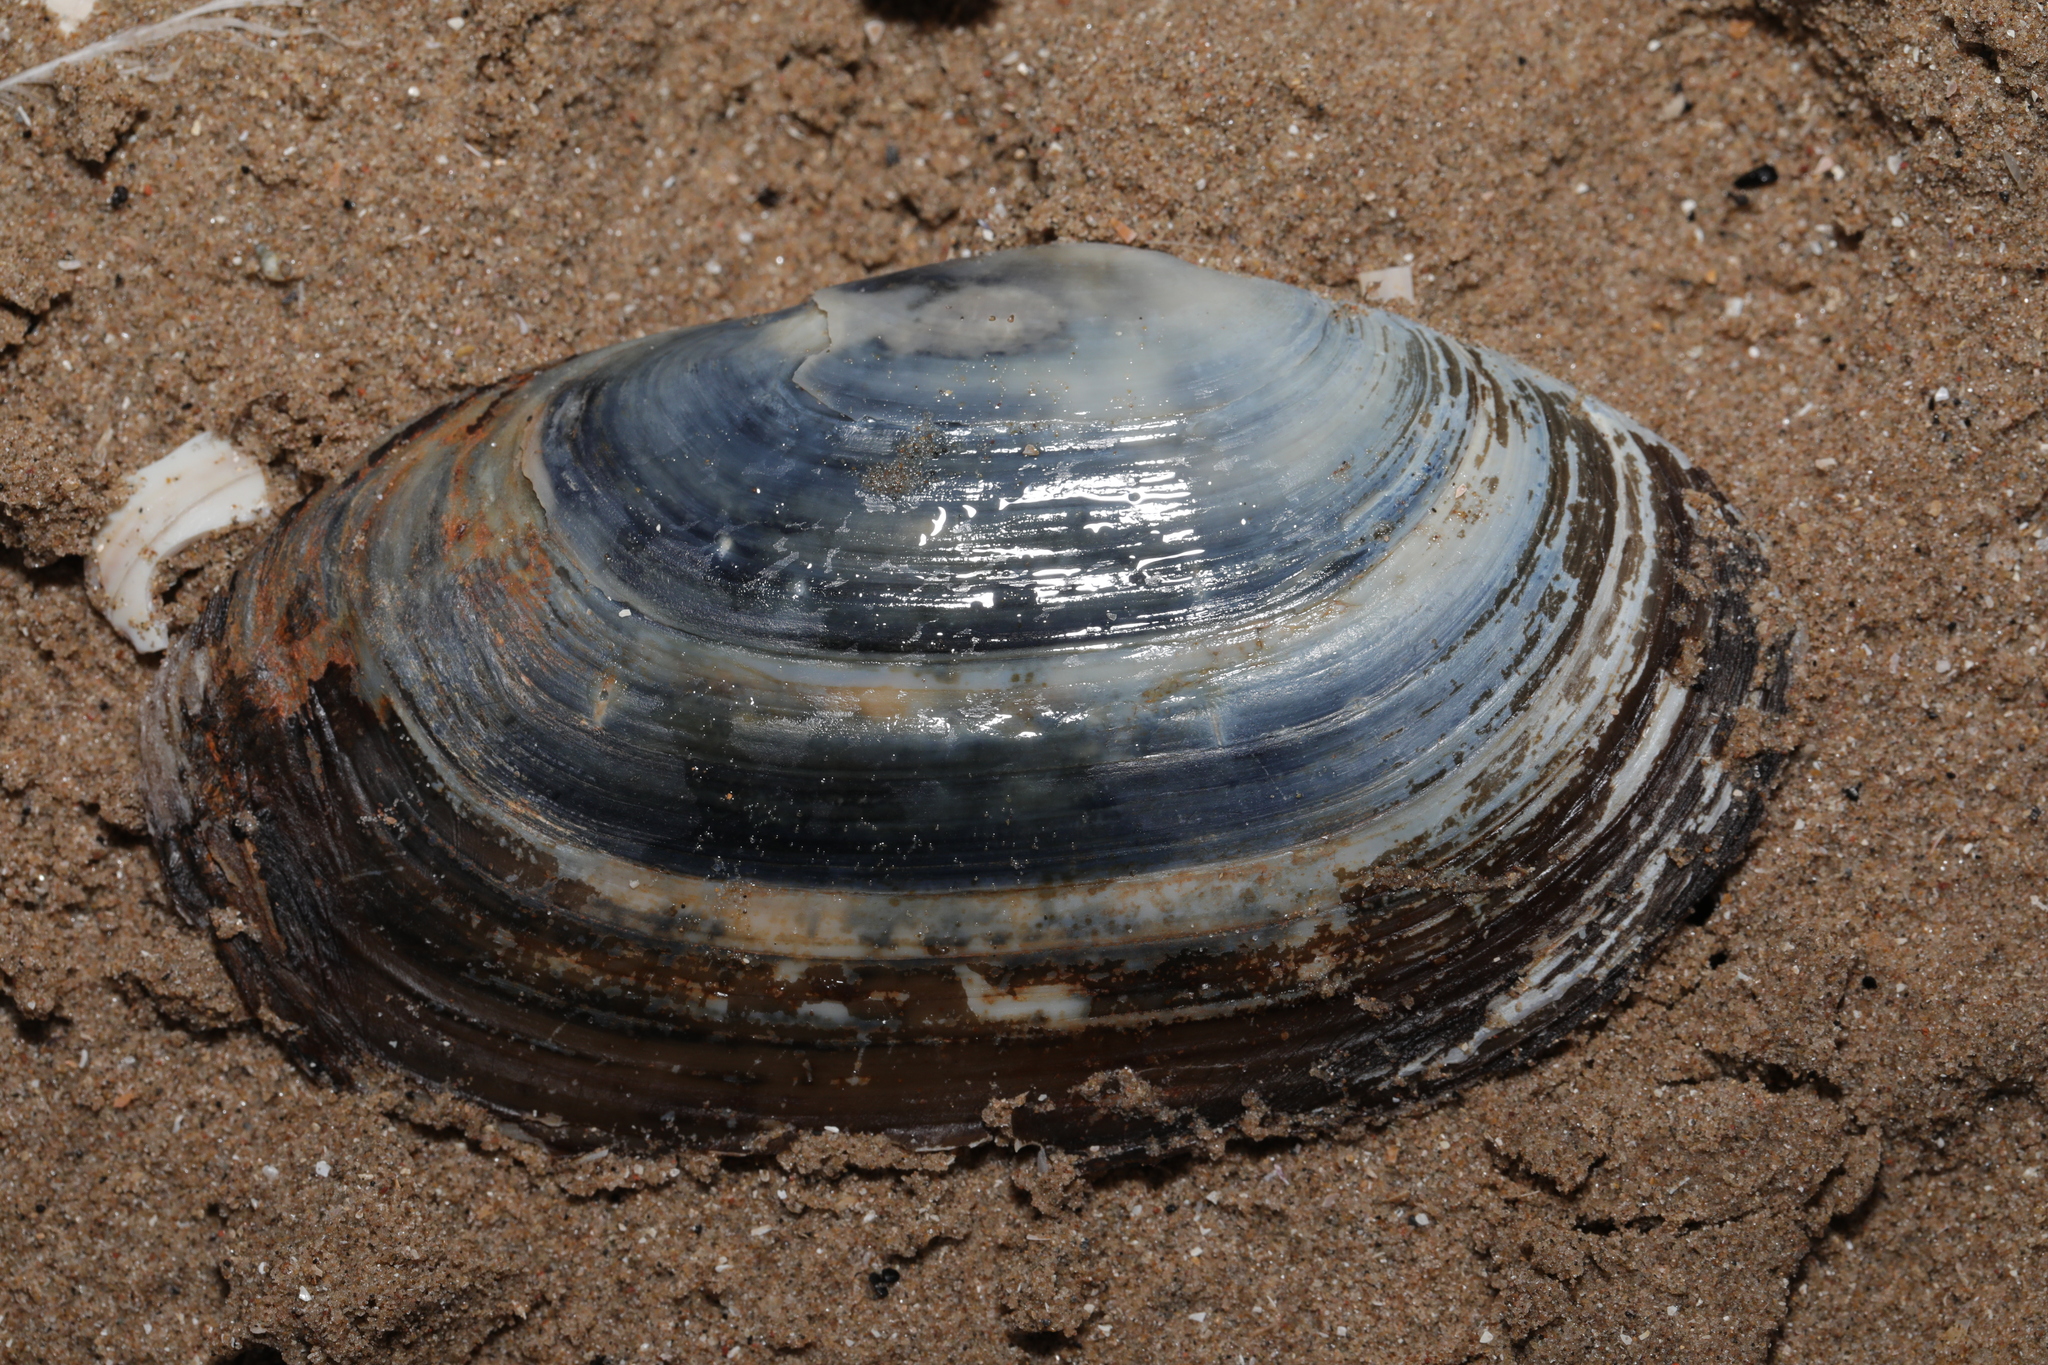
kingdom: Animalia
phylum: Mollusca
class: Bivalvia
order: Venerida
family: Mactridae
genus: Lutraria
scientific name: Lutraria lutraria
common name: Common otter shell
